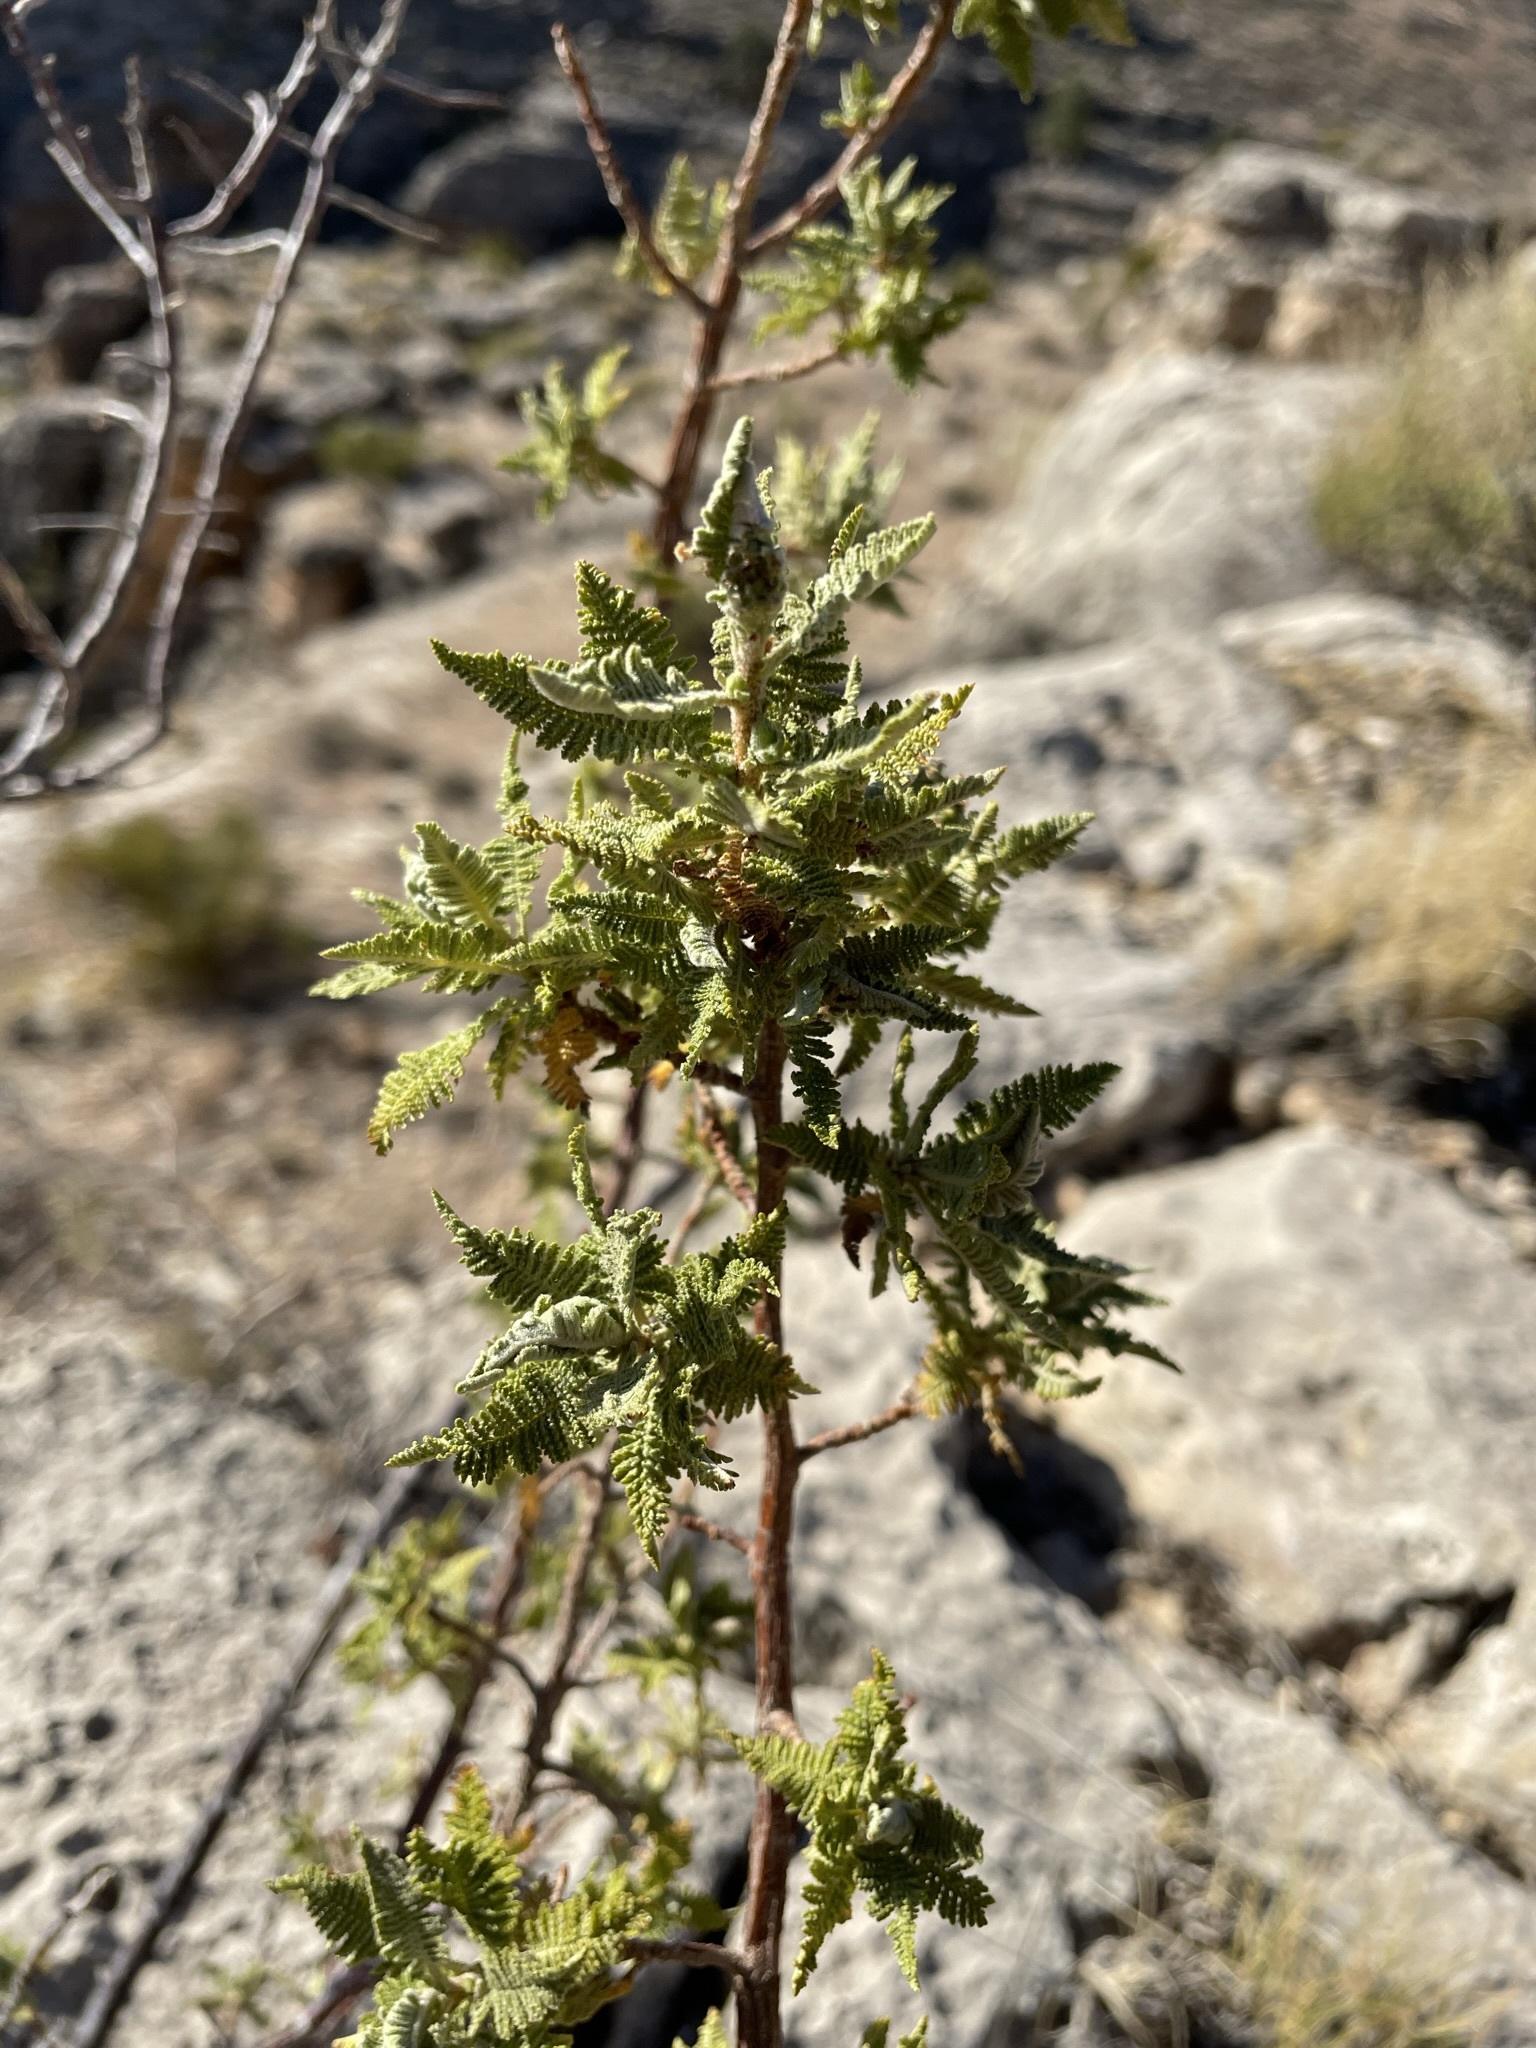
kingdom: Plantae
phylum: Tracheophyta
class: Magnoliopsida
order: Rosales
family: Rosaceae
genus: Chamaebatiaria
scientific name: Chamaebatiaria millefolium
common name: Fernbush
